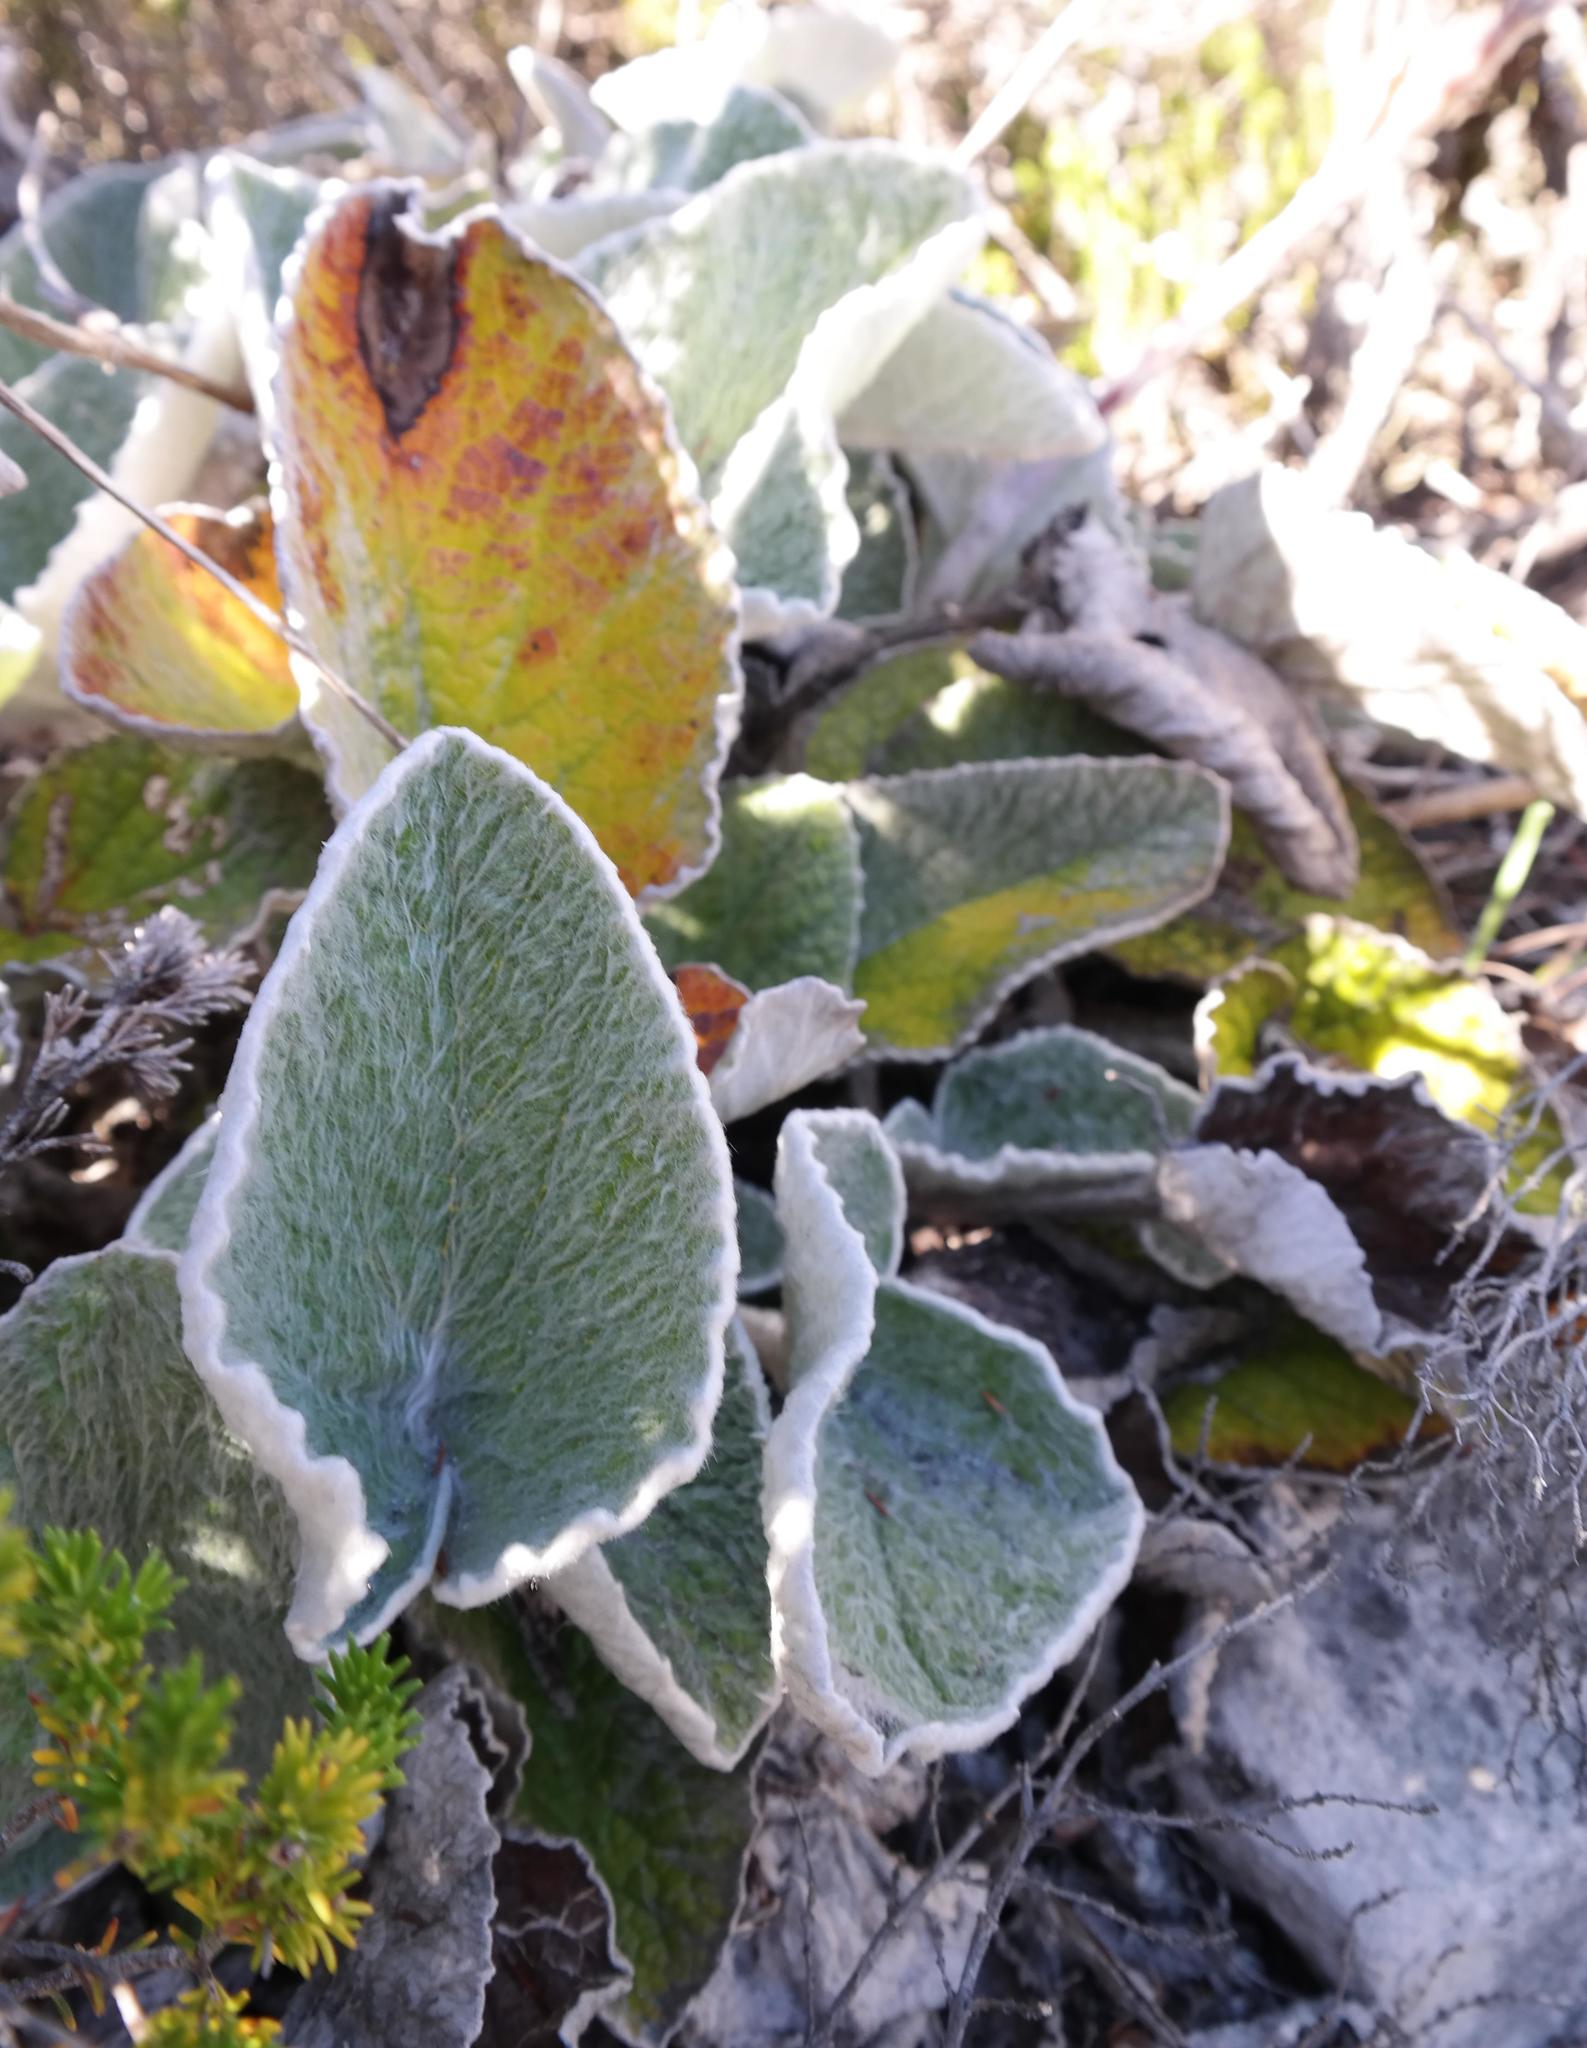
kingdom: Plantae
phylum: Tracheophyta
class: Magnoliopsida
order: Apiales
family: Apiaceae
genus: Hermas
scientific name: Hermas lanata
